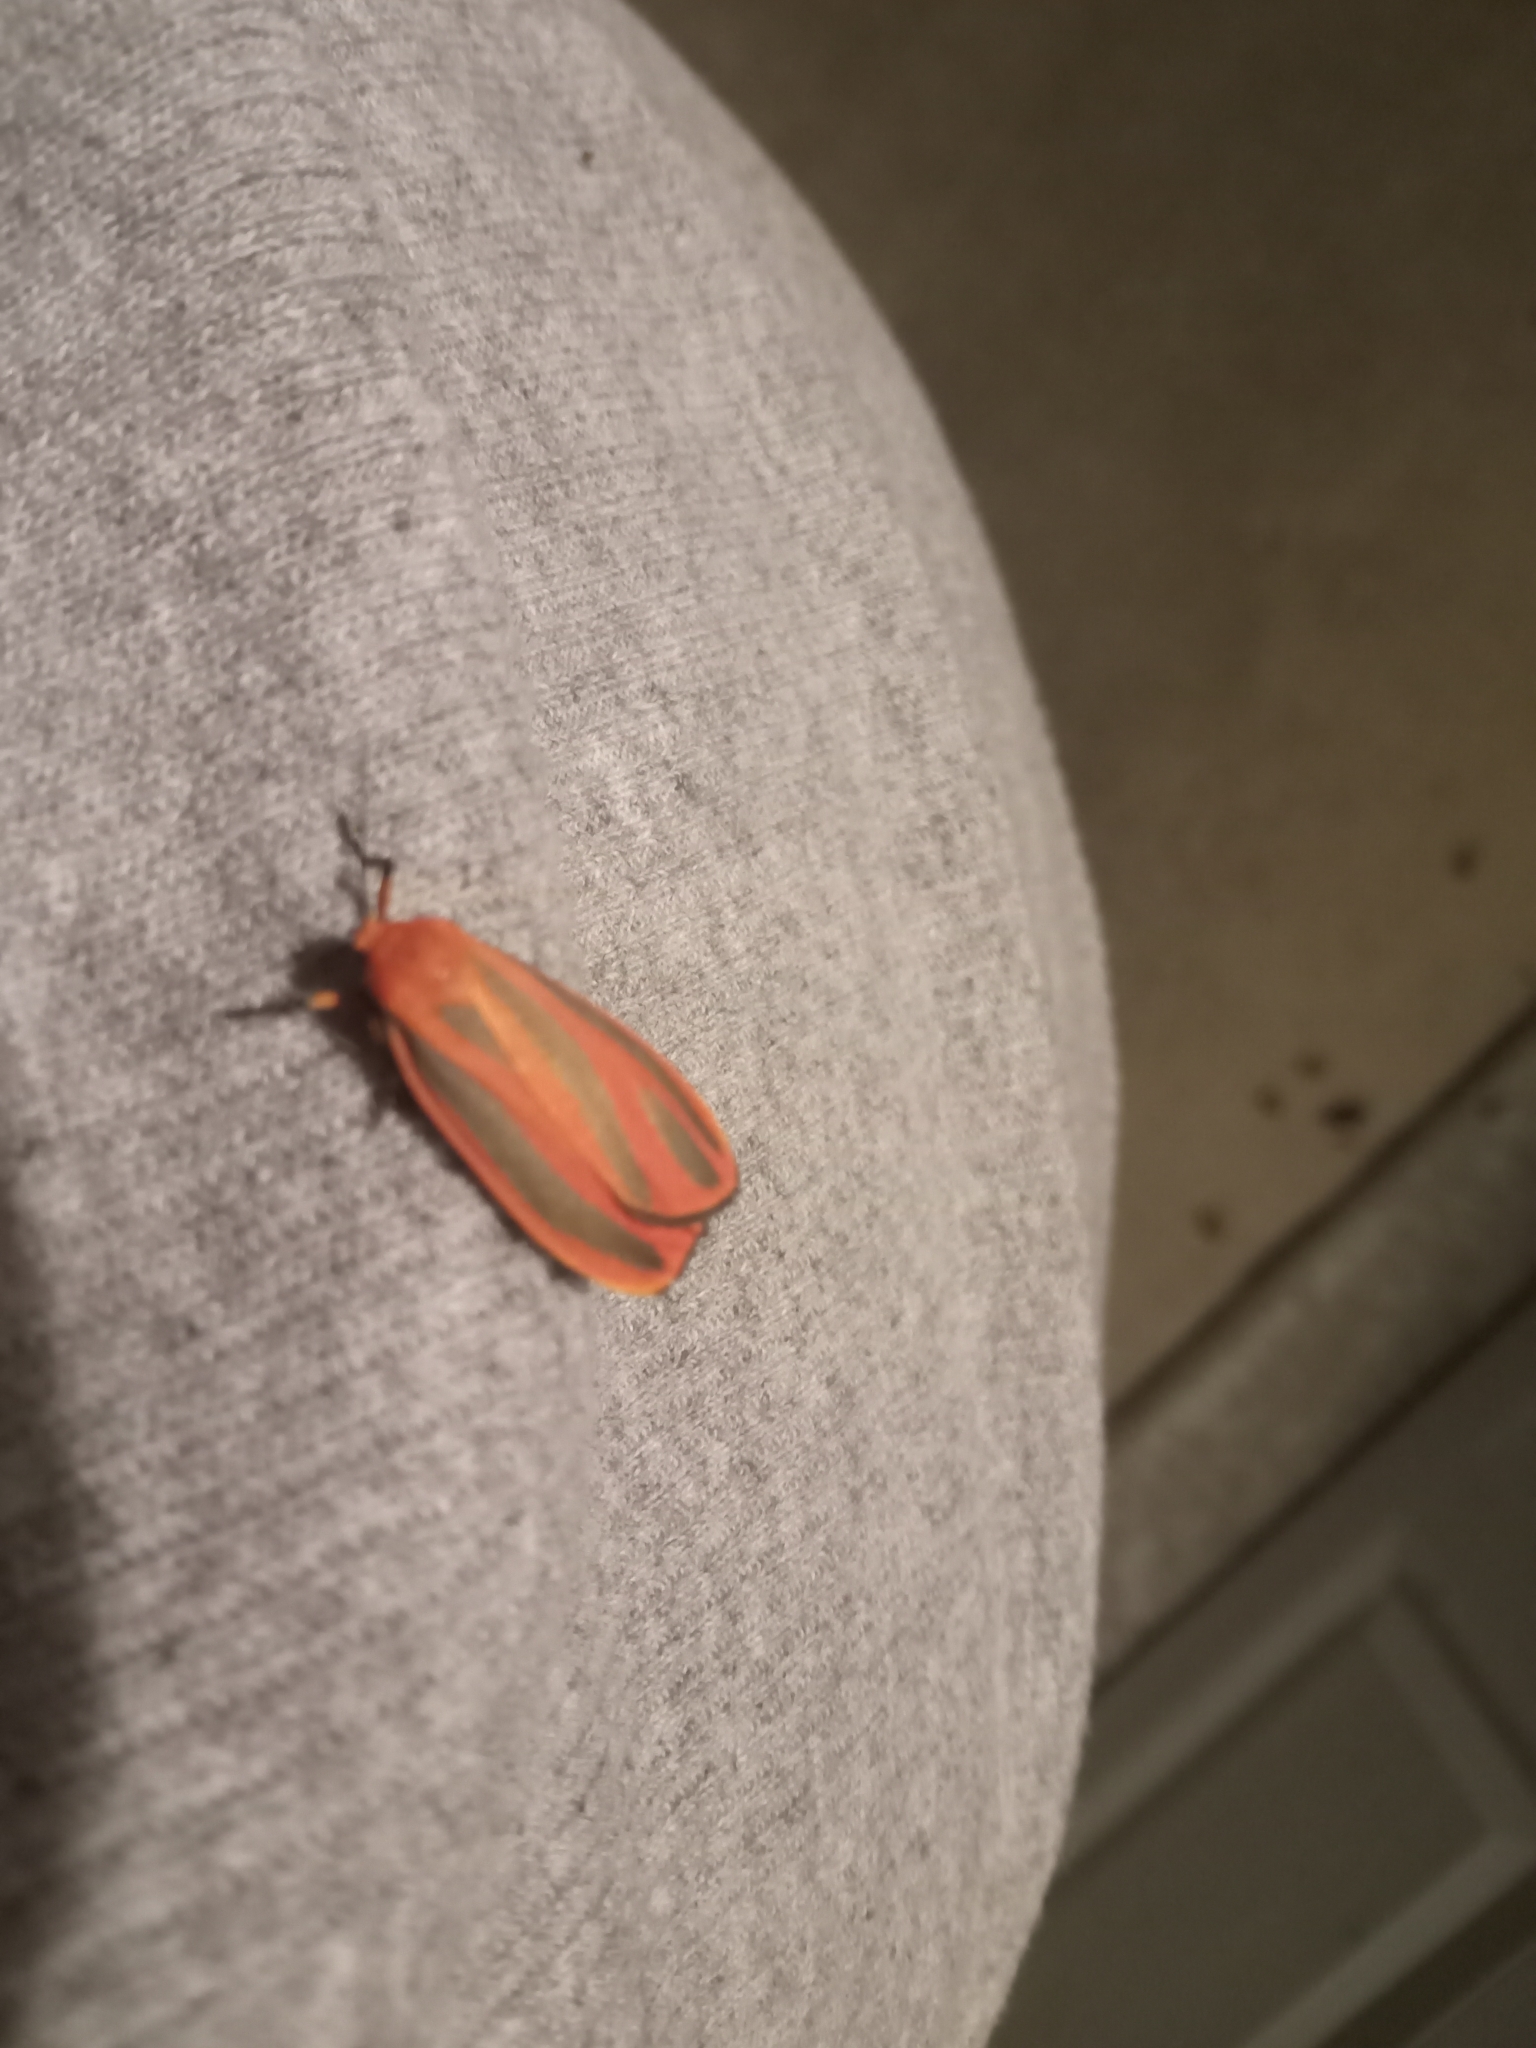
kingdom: Animalia
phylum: Arthropoda
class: Insecta
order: Lepidoptera
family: Erebidae
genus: Hypoprepia
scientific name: Hypoprepia miniata
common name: Scarlet-winged lichen moth
